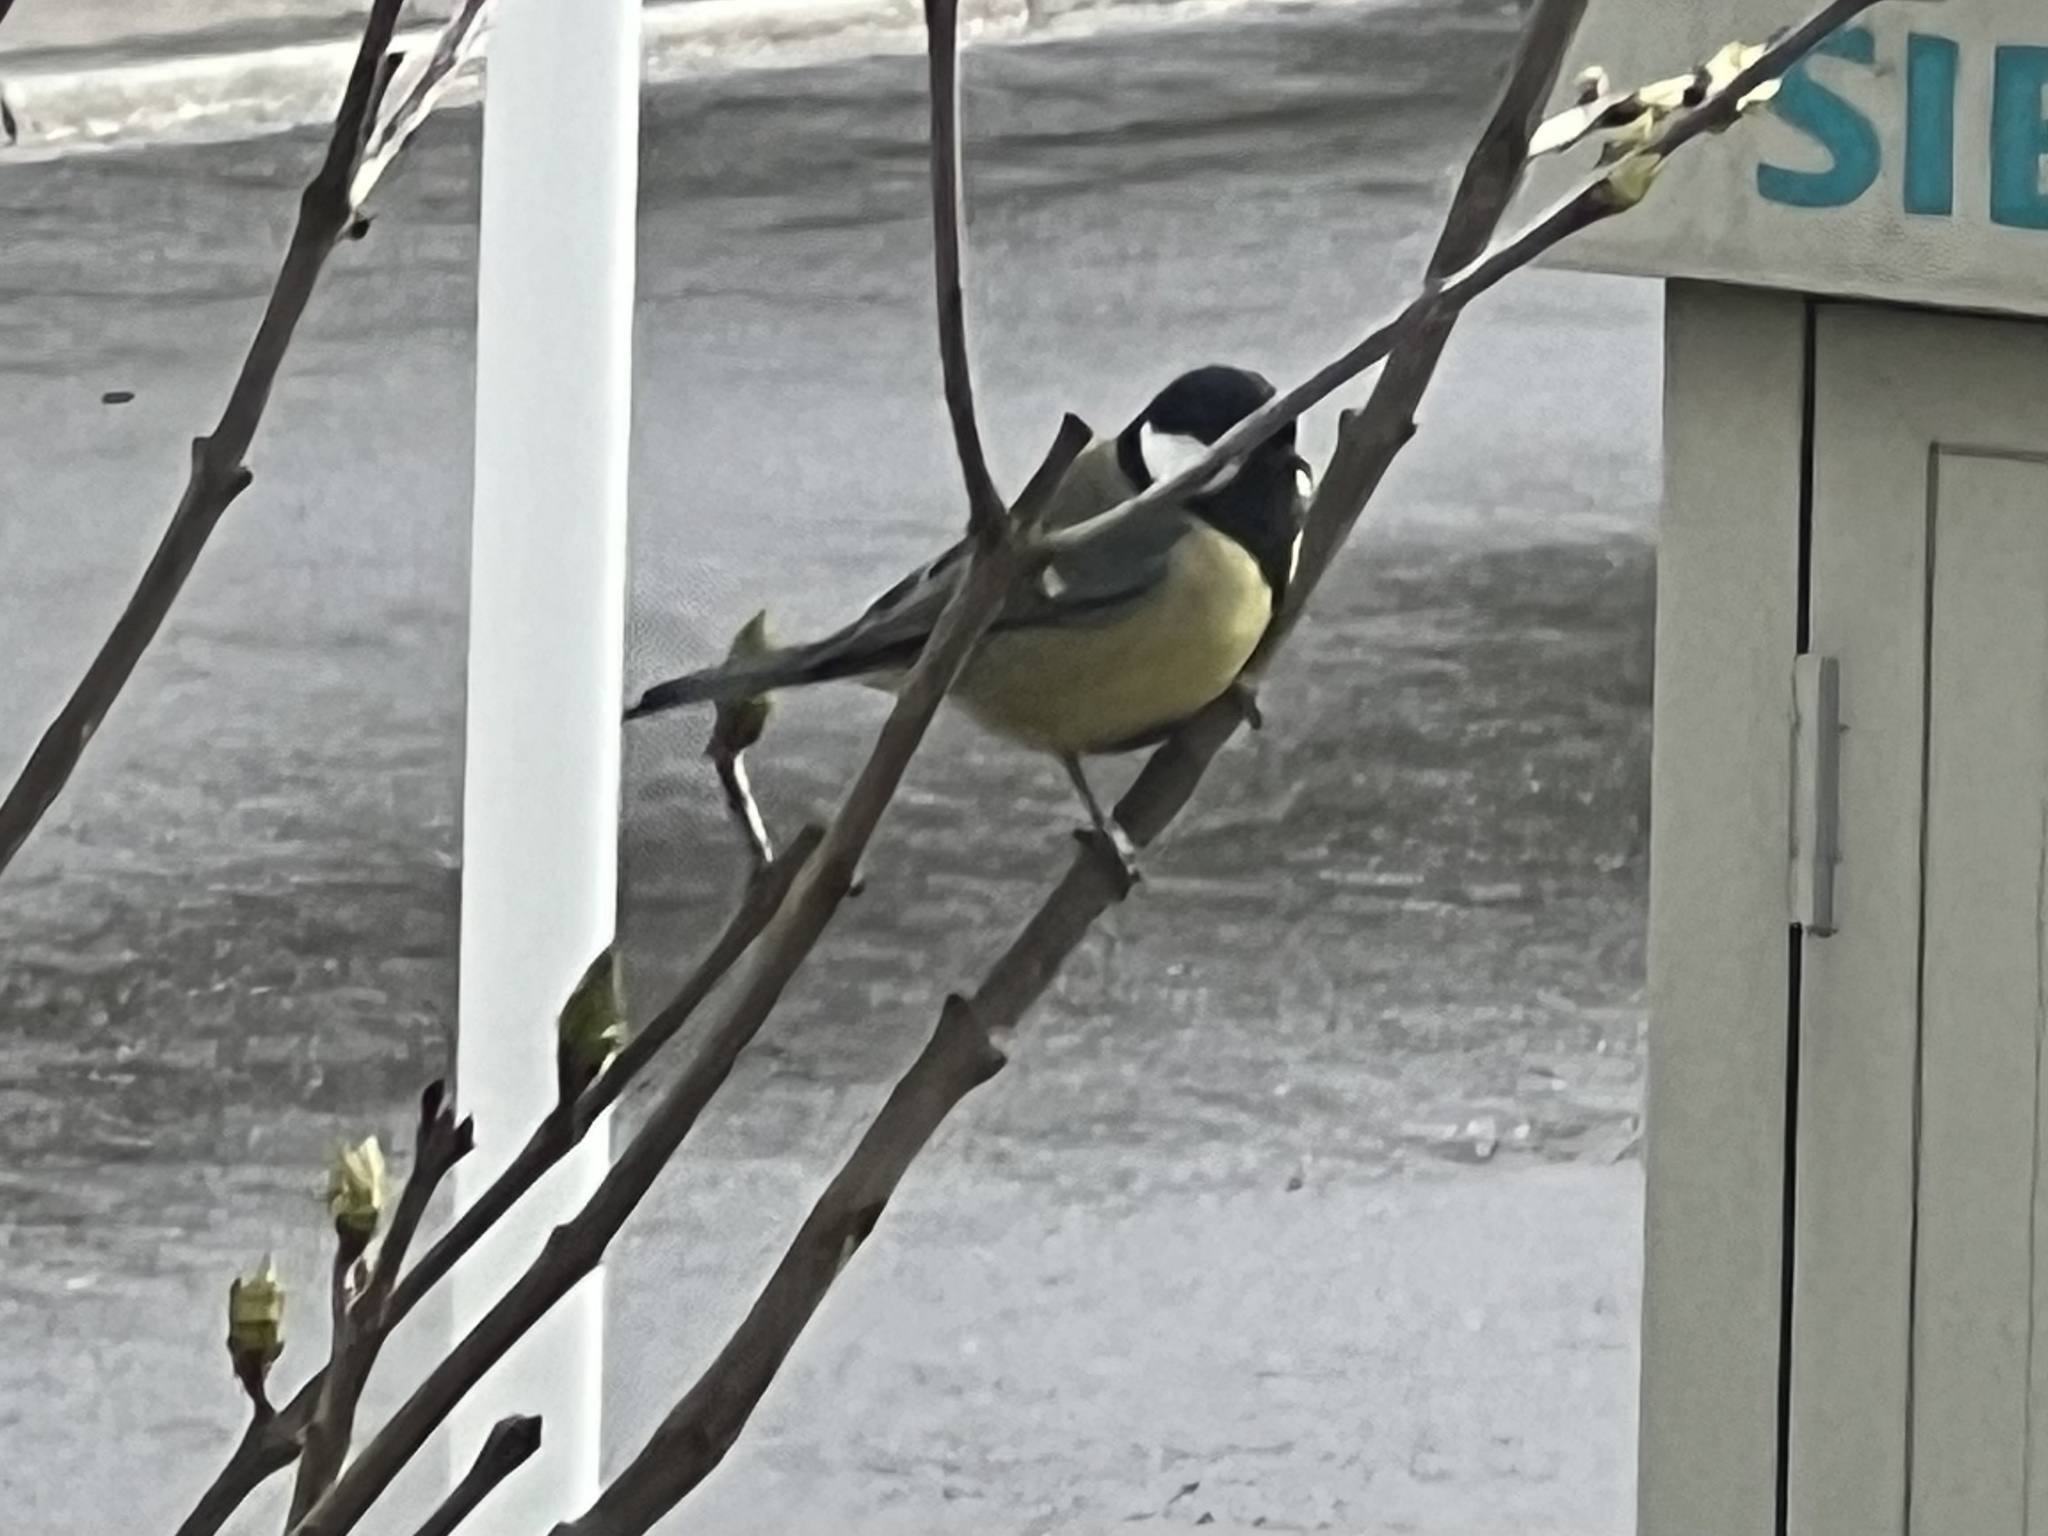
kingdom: Animalia
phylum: Chordata
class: Aves
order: Passeriformes
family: Paridae
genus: Parus
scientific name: Parus major
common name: Great tit
